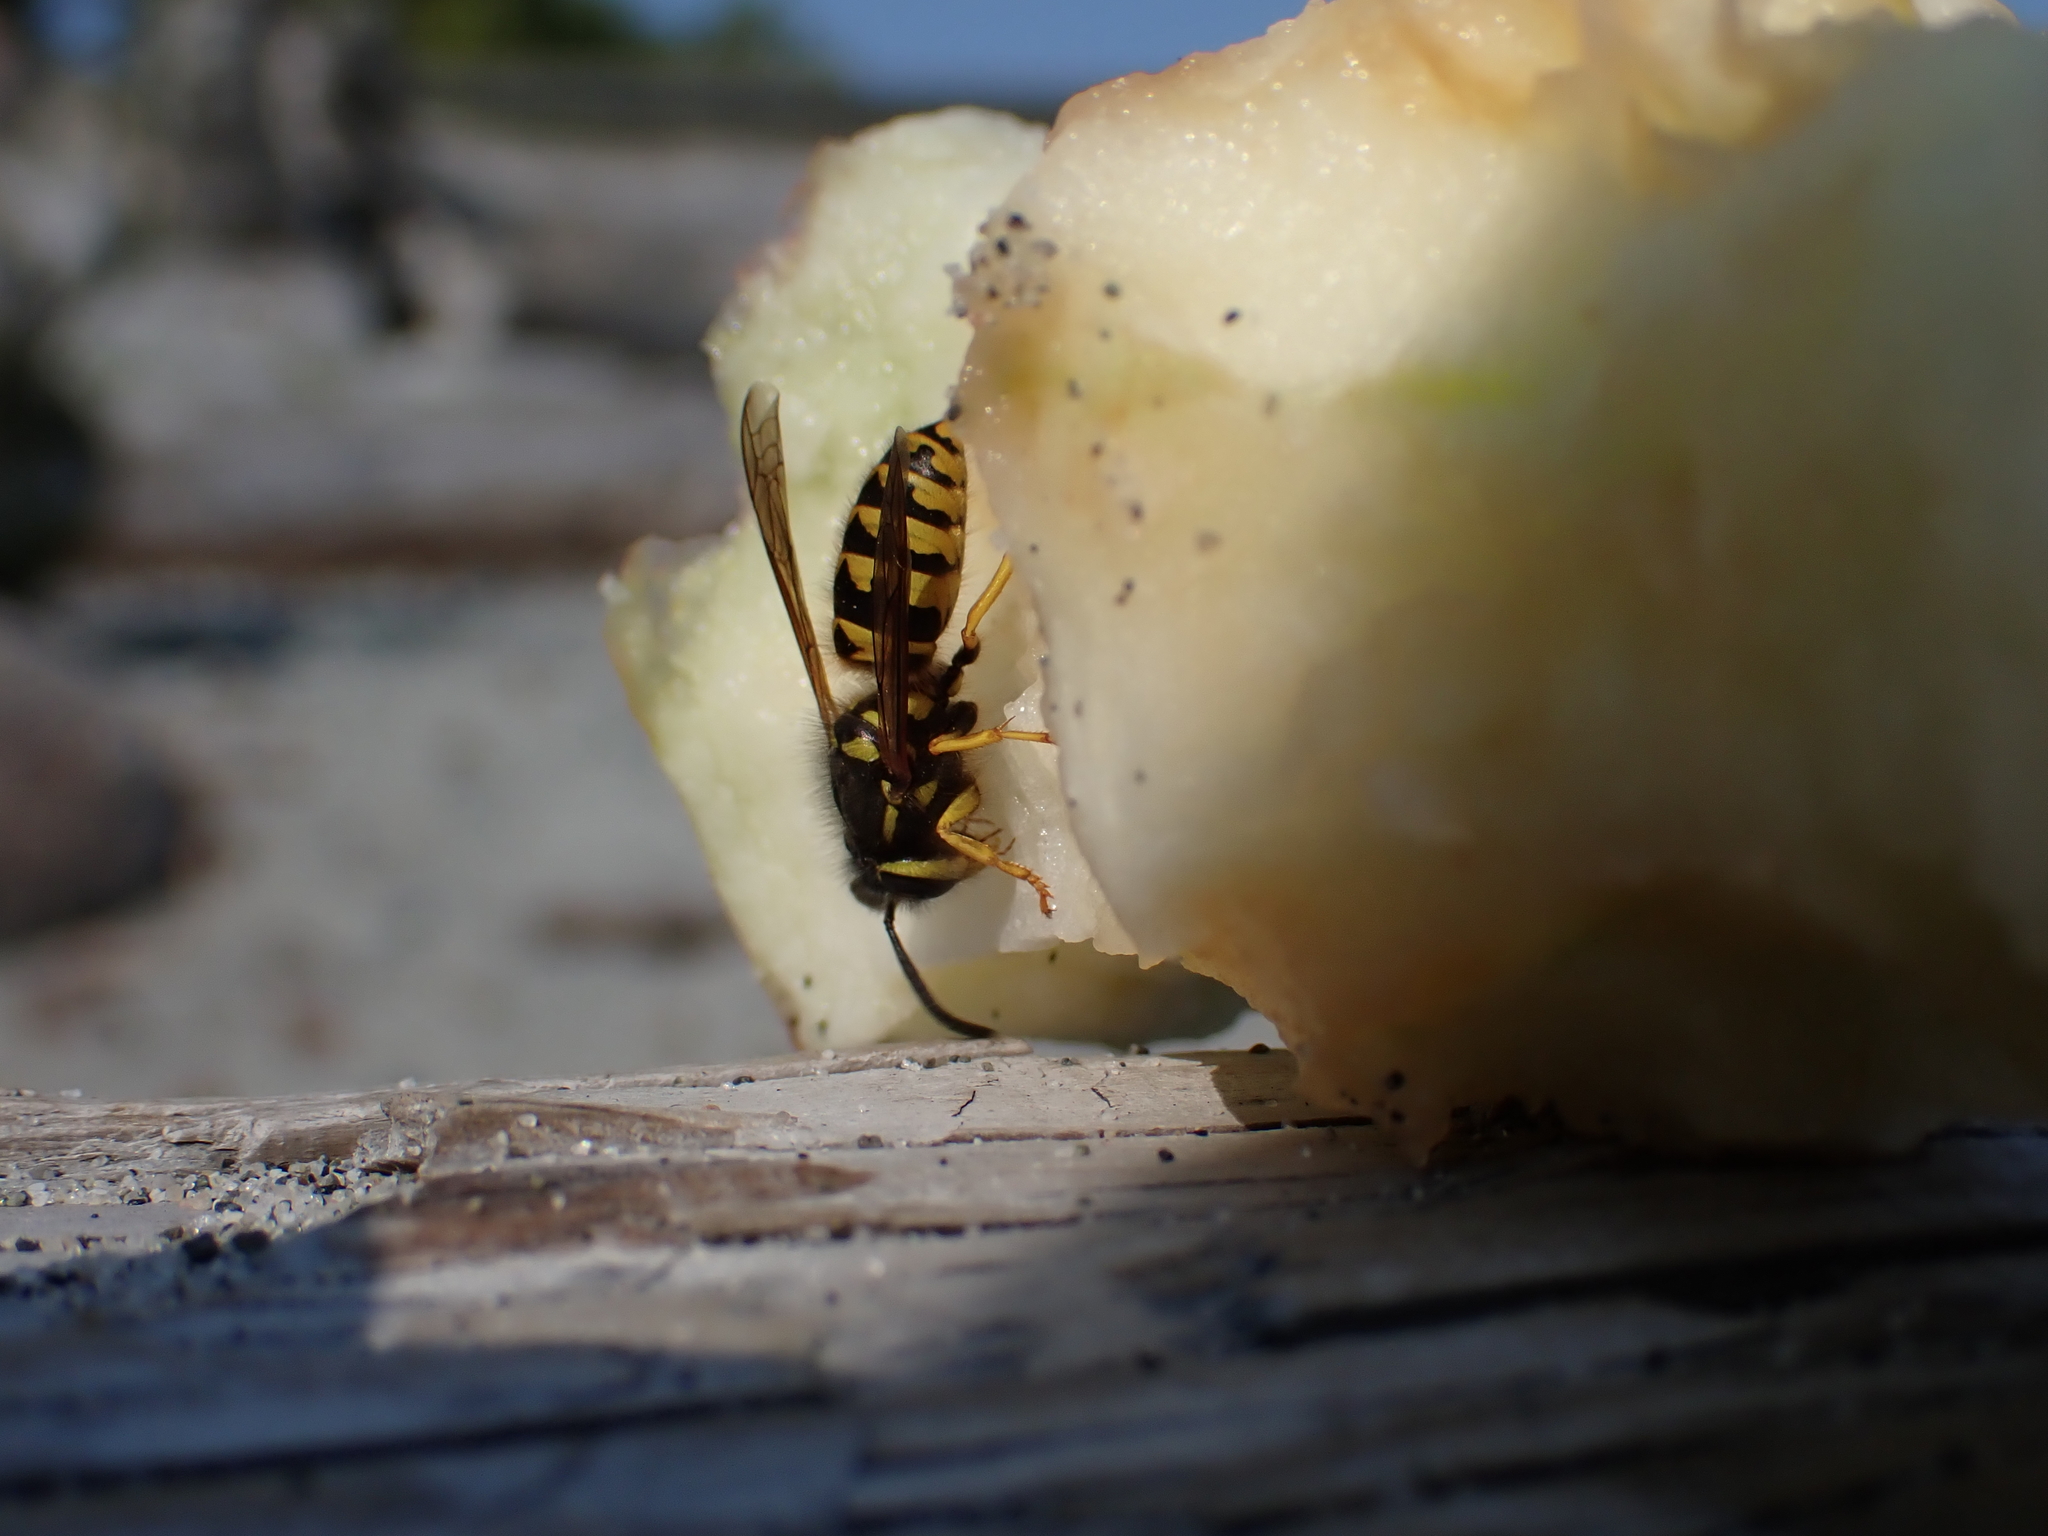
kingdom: Animalia
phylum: Arthropoda
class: Insecta
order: Hymenoptera
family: Vespidae
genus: Vespula
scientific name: Vespula pensylvanica
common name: Western yellowjacket
